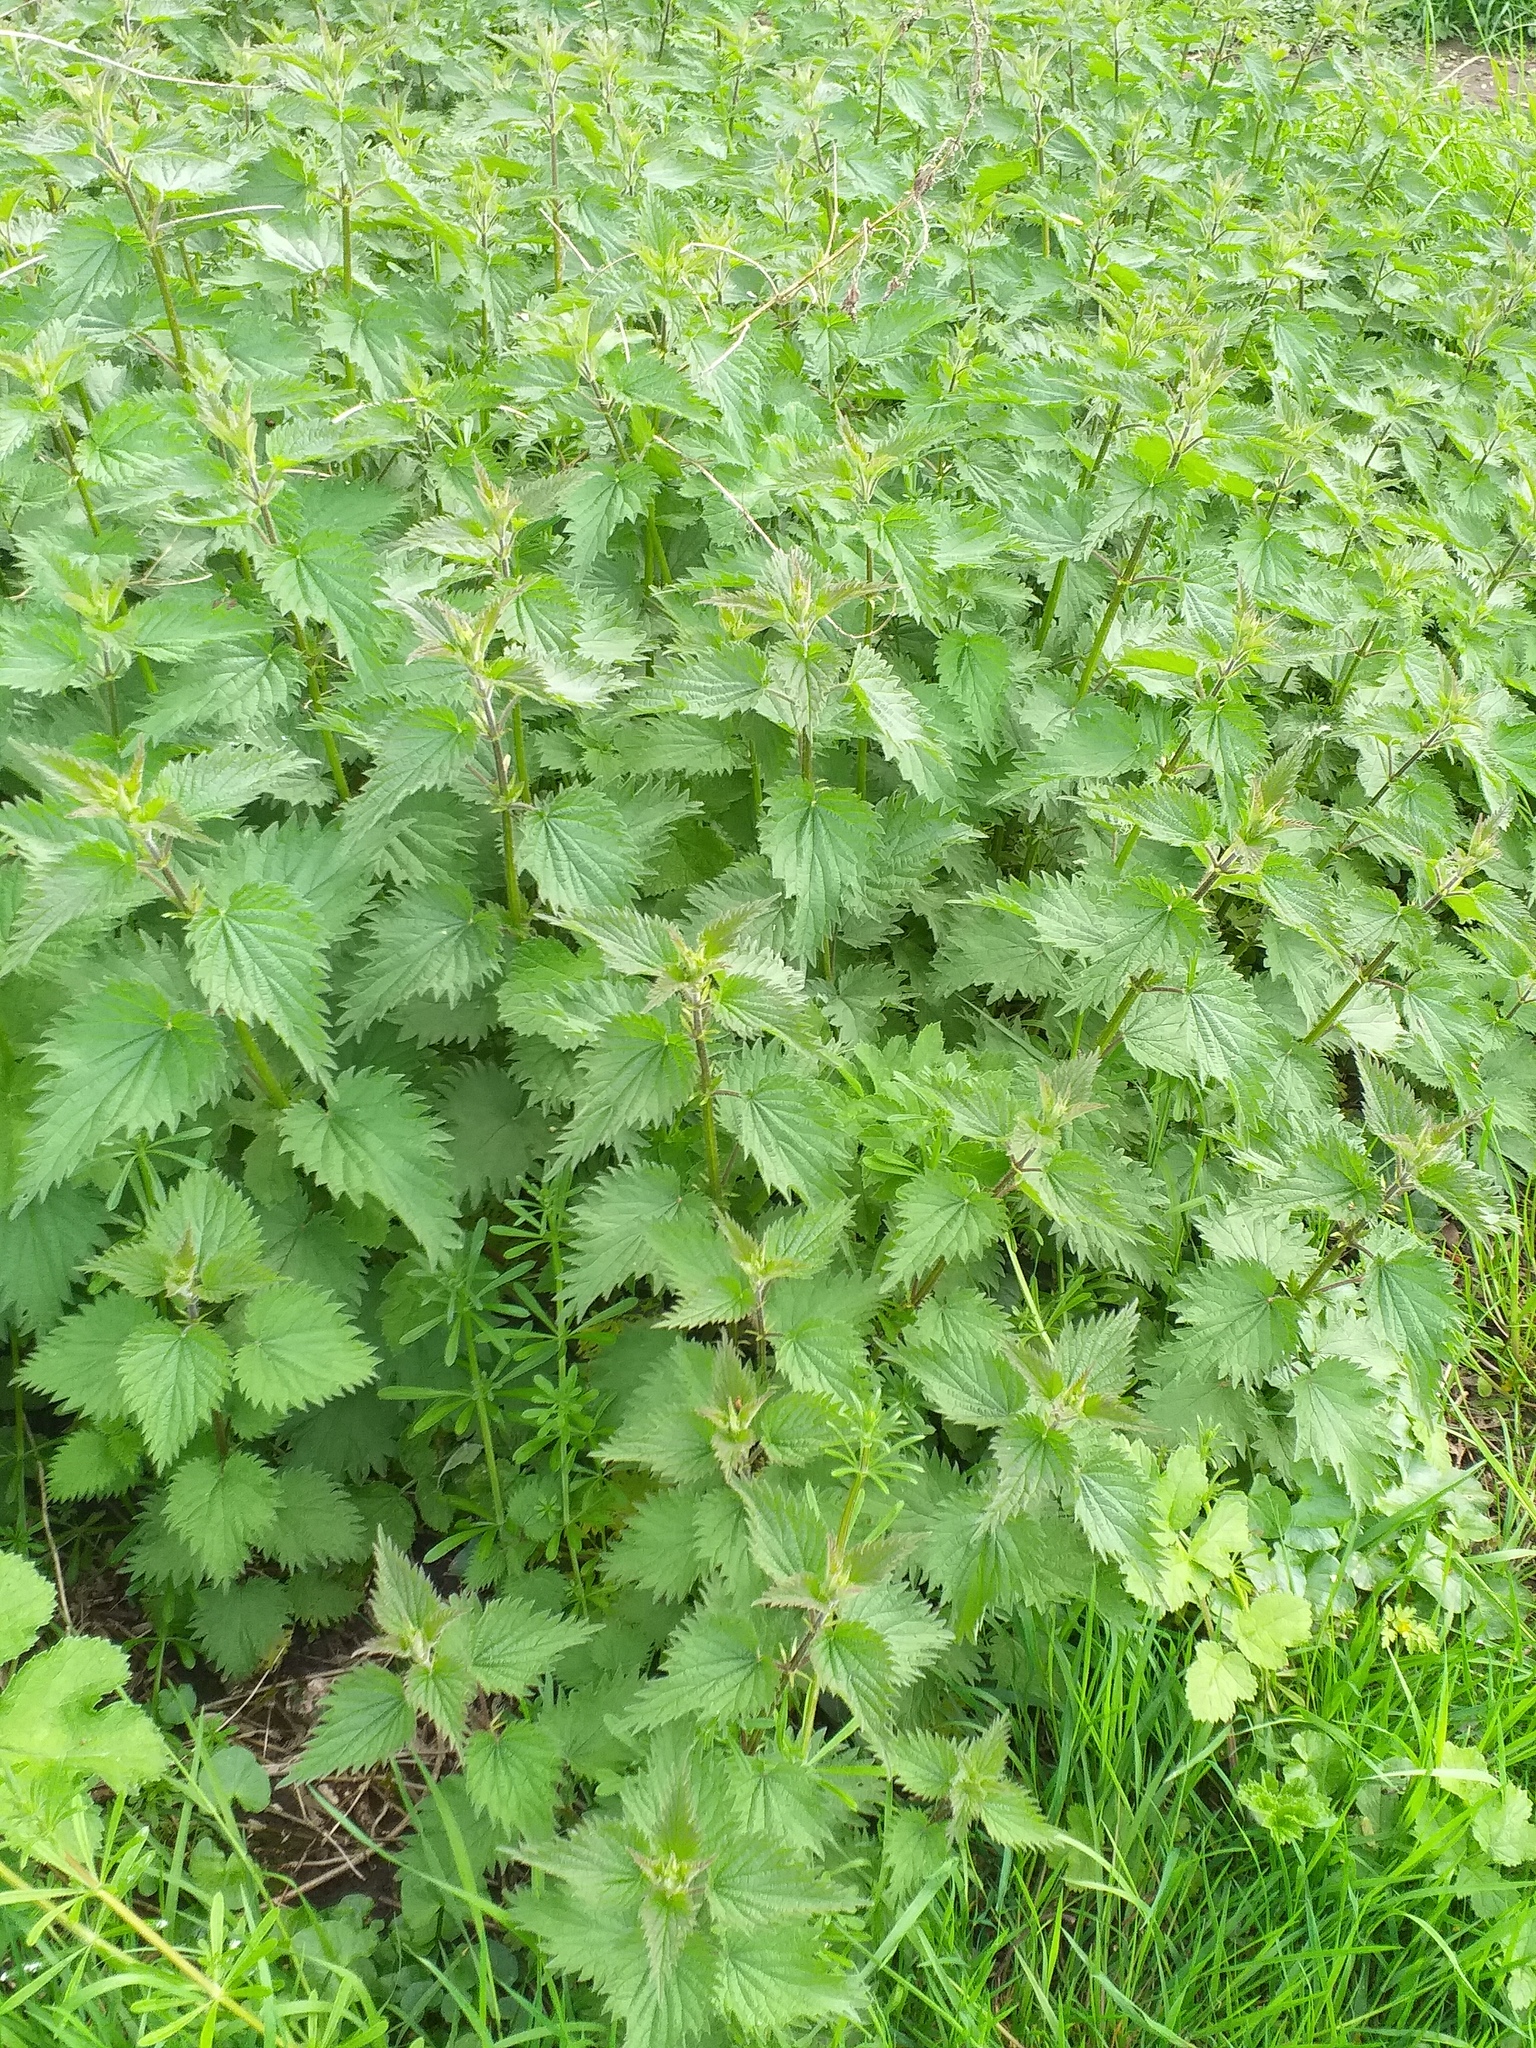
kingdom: Plantae
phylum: Tracheophyta
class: Magnoliopsida
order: Rosales
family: Urticaceae
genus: Urtica
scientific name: Urtica dioica
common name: Common nettle
